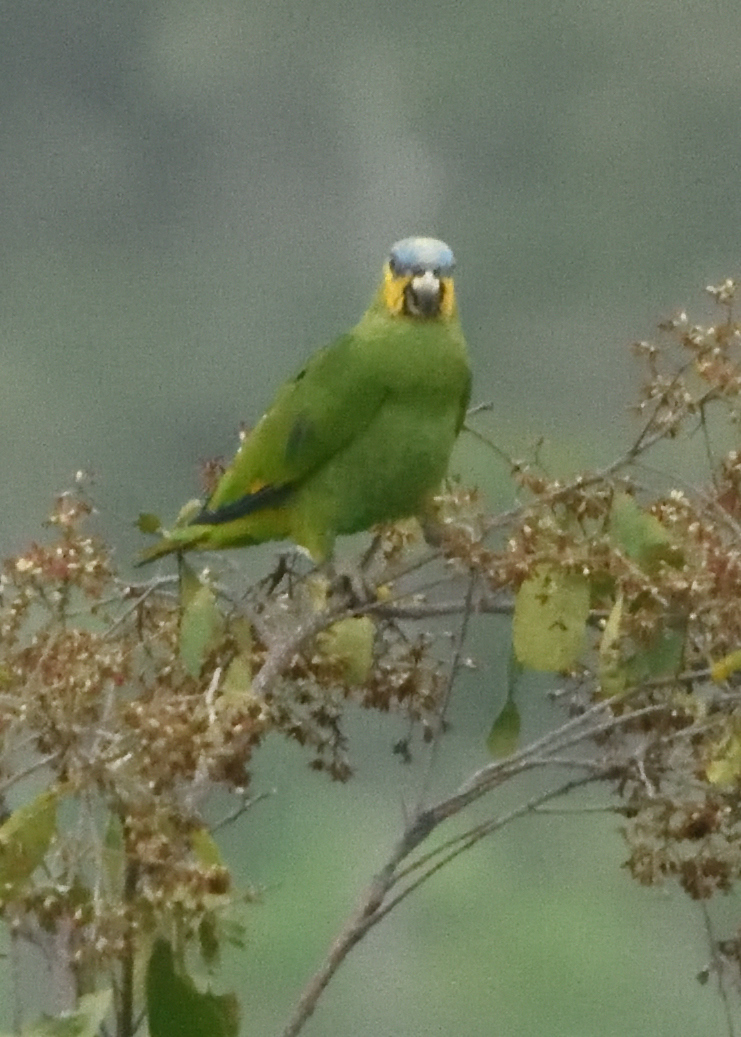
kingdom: Animalia
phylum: Chordata
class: Aves
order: Psittaciformes
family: Psittacidae
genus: Amazona
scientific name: Amazona amazonica
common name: Orange-winged amazon
